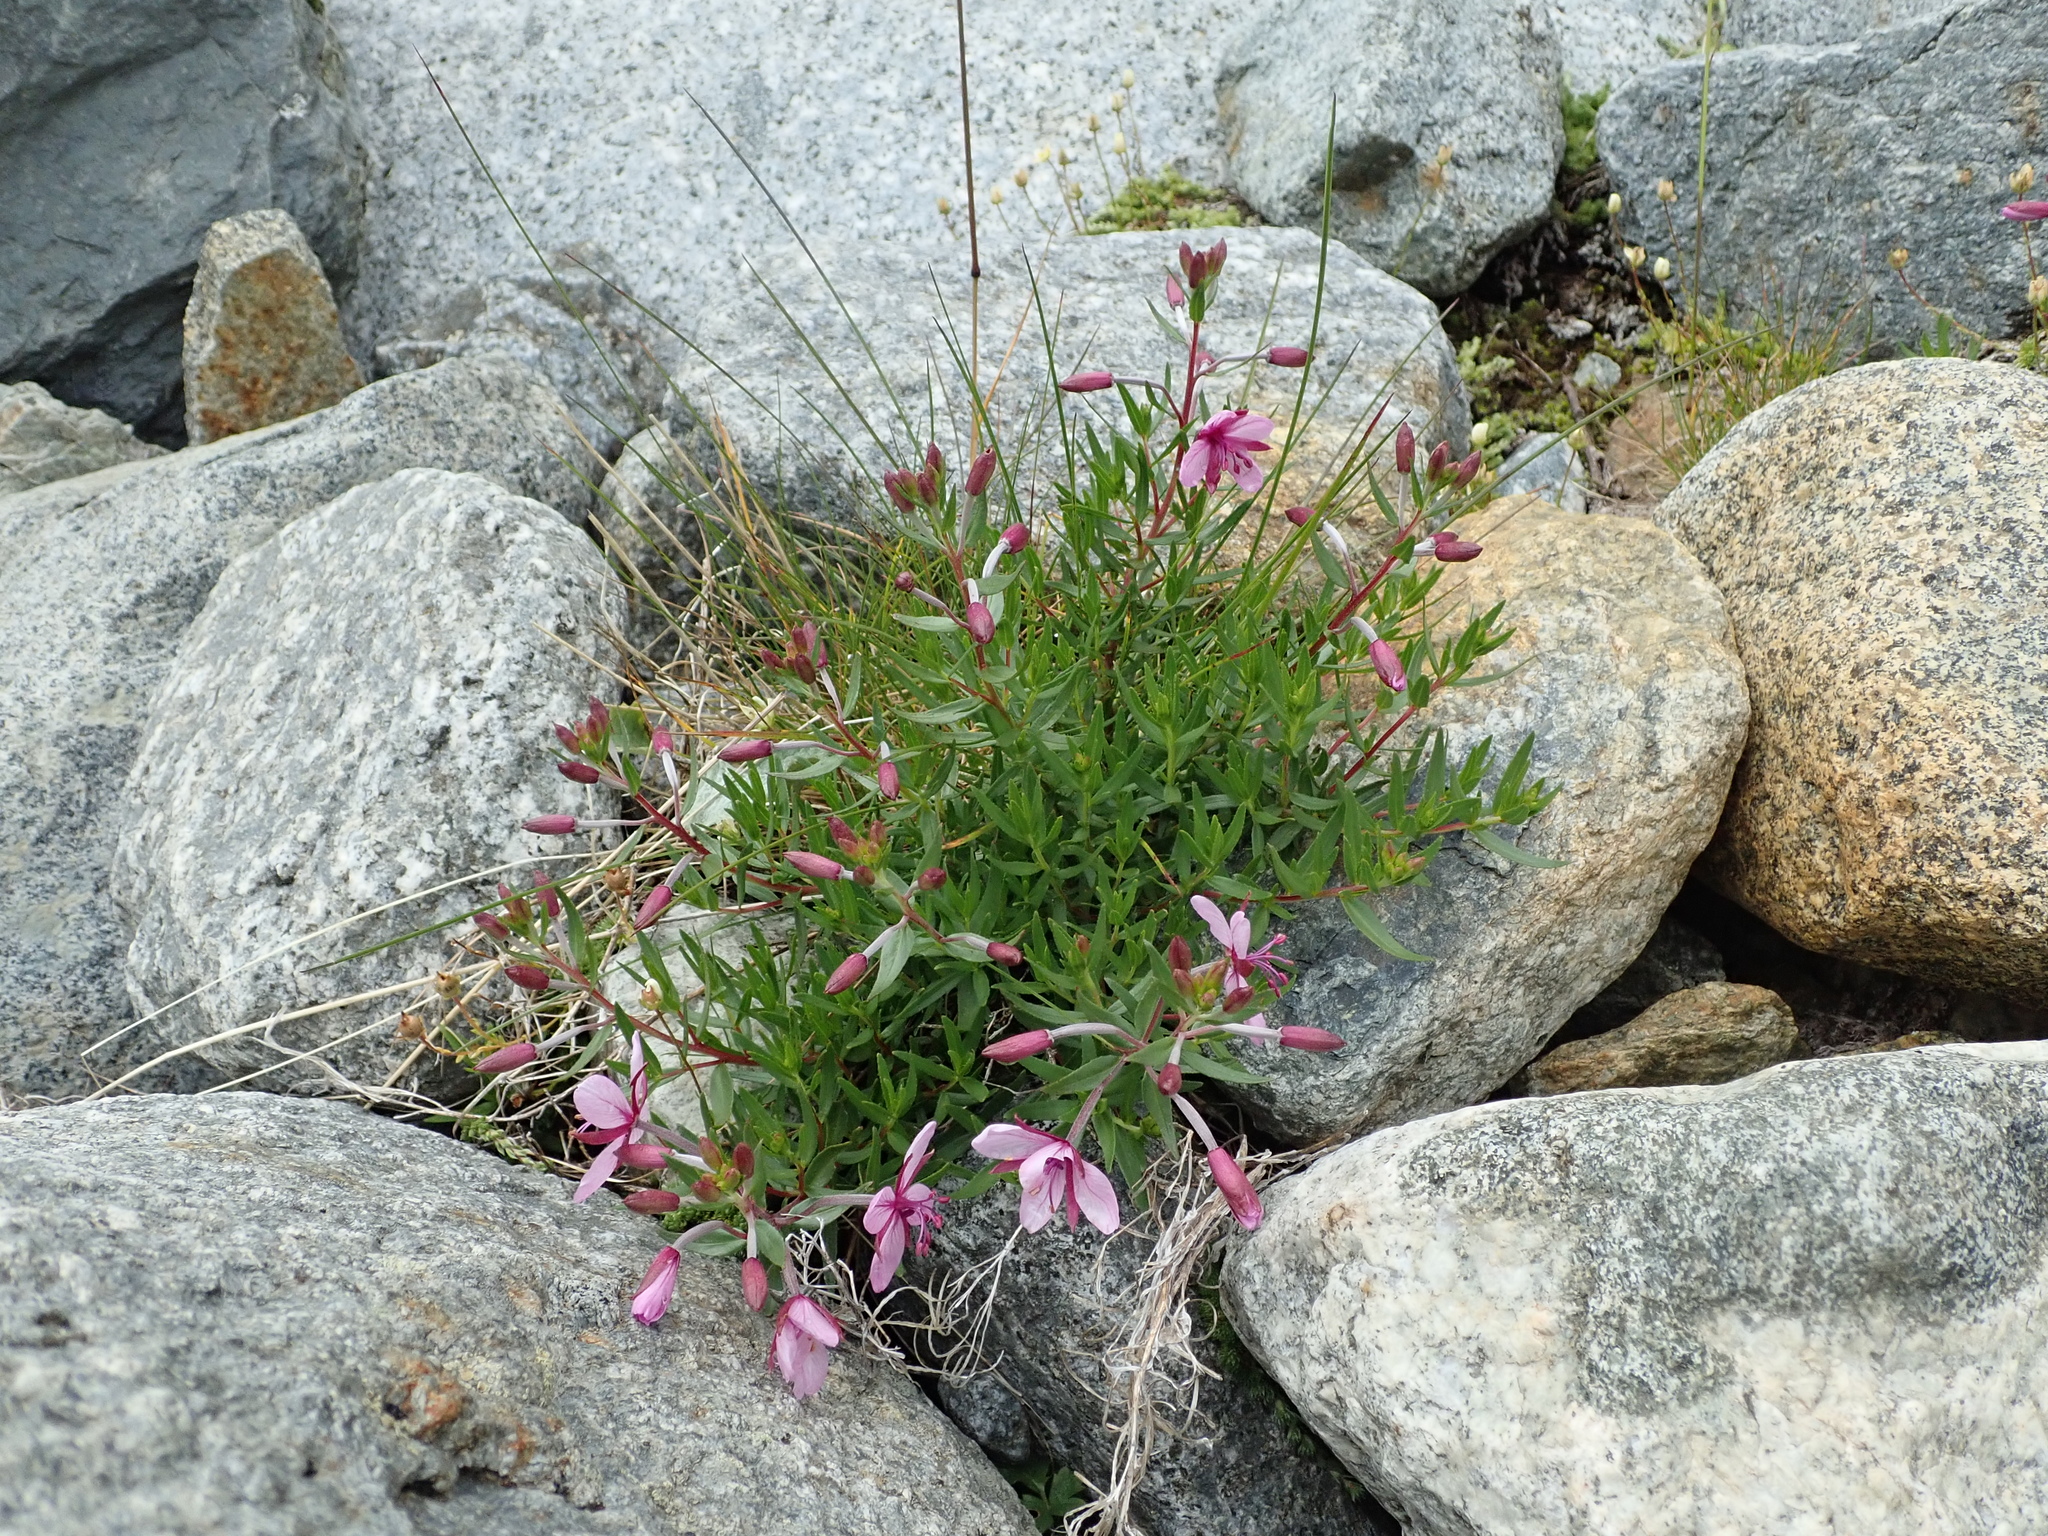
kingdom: Plantae
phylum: Tracheophyta
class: Magnoliopsida
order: Myrtales
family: Onagraceae
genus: Chamaenerion
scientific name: Chamaenerion fleischeri
